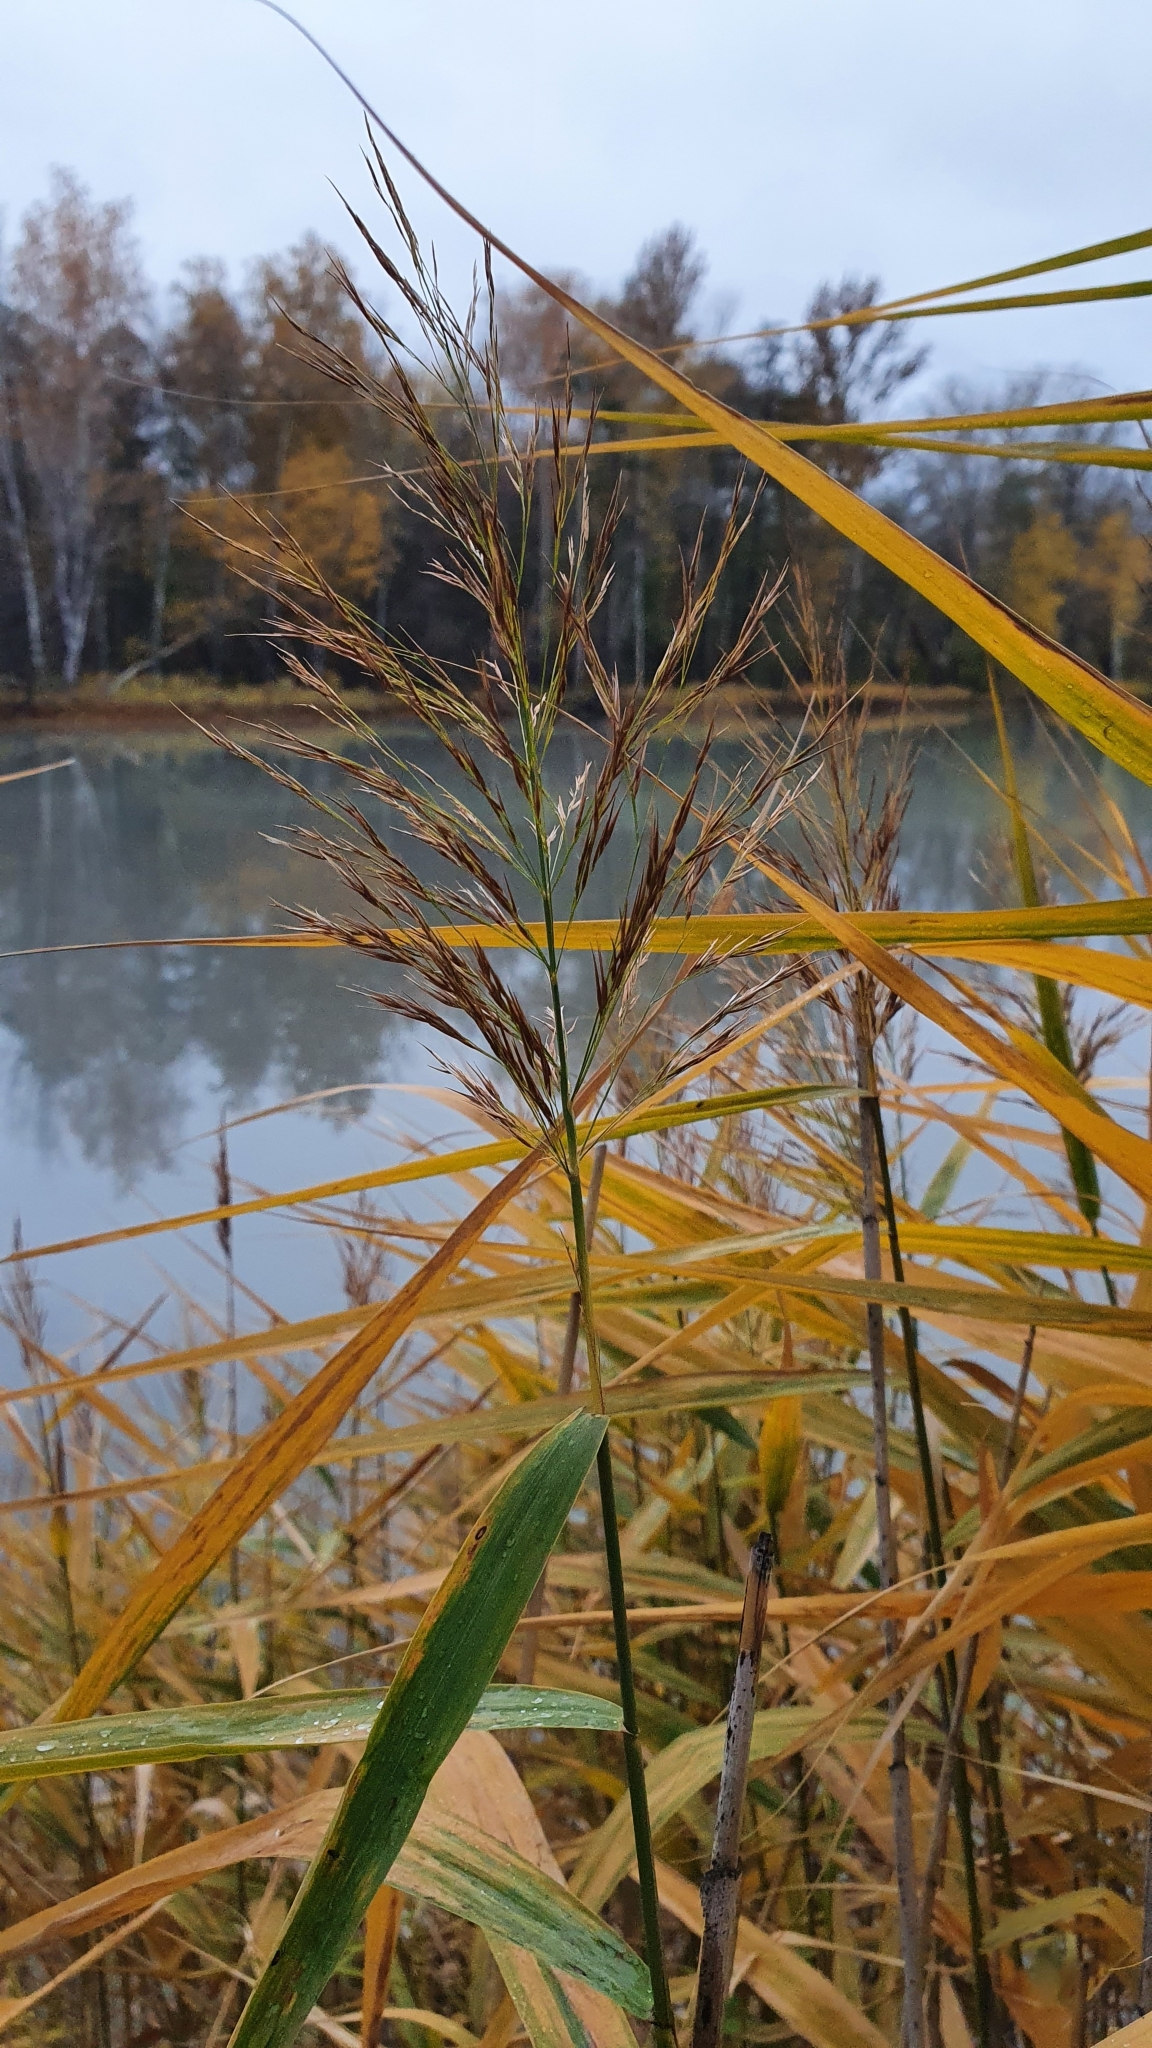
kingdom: Plantae
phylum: Tracheophyta
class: Liliopsida
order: Poales
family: Poaceae
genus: Phragmites
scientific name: Phragmites australis
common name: Common reed
